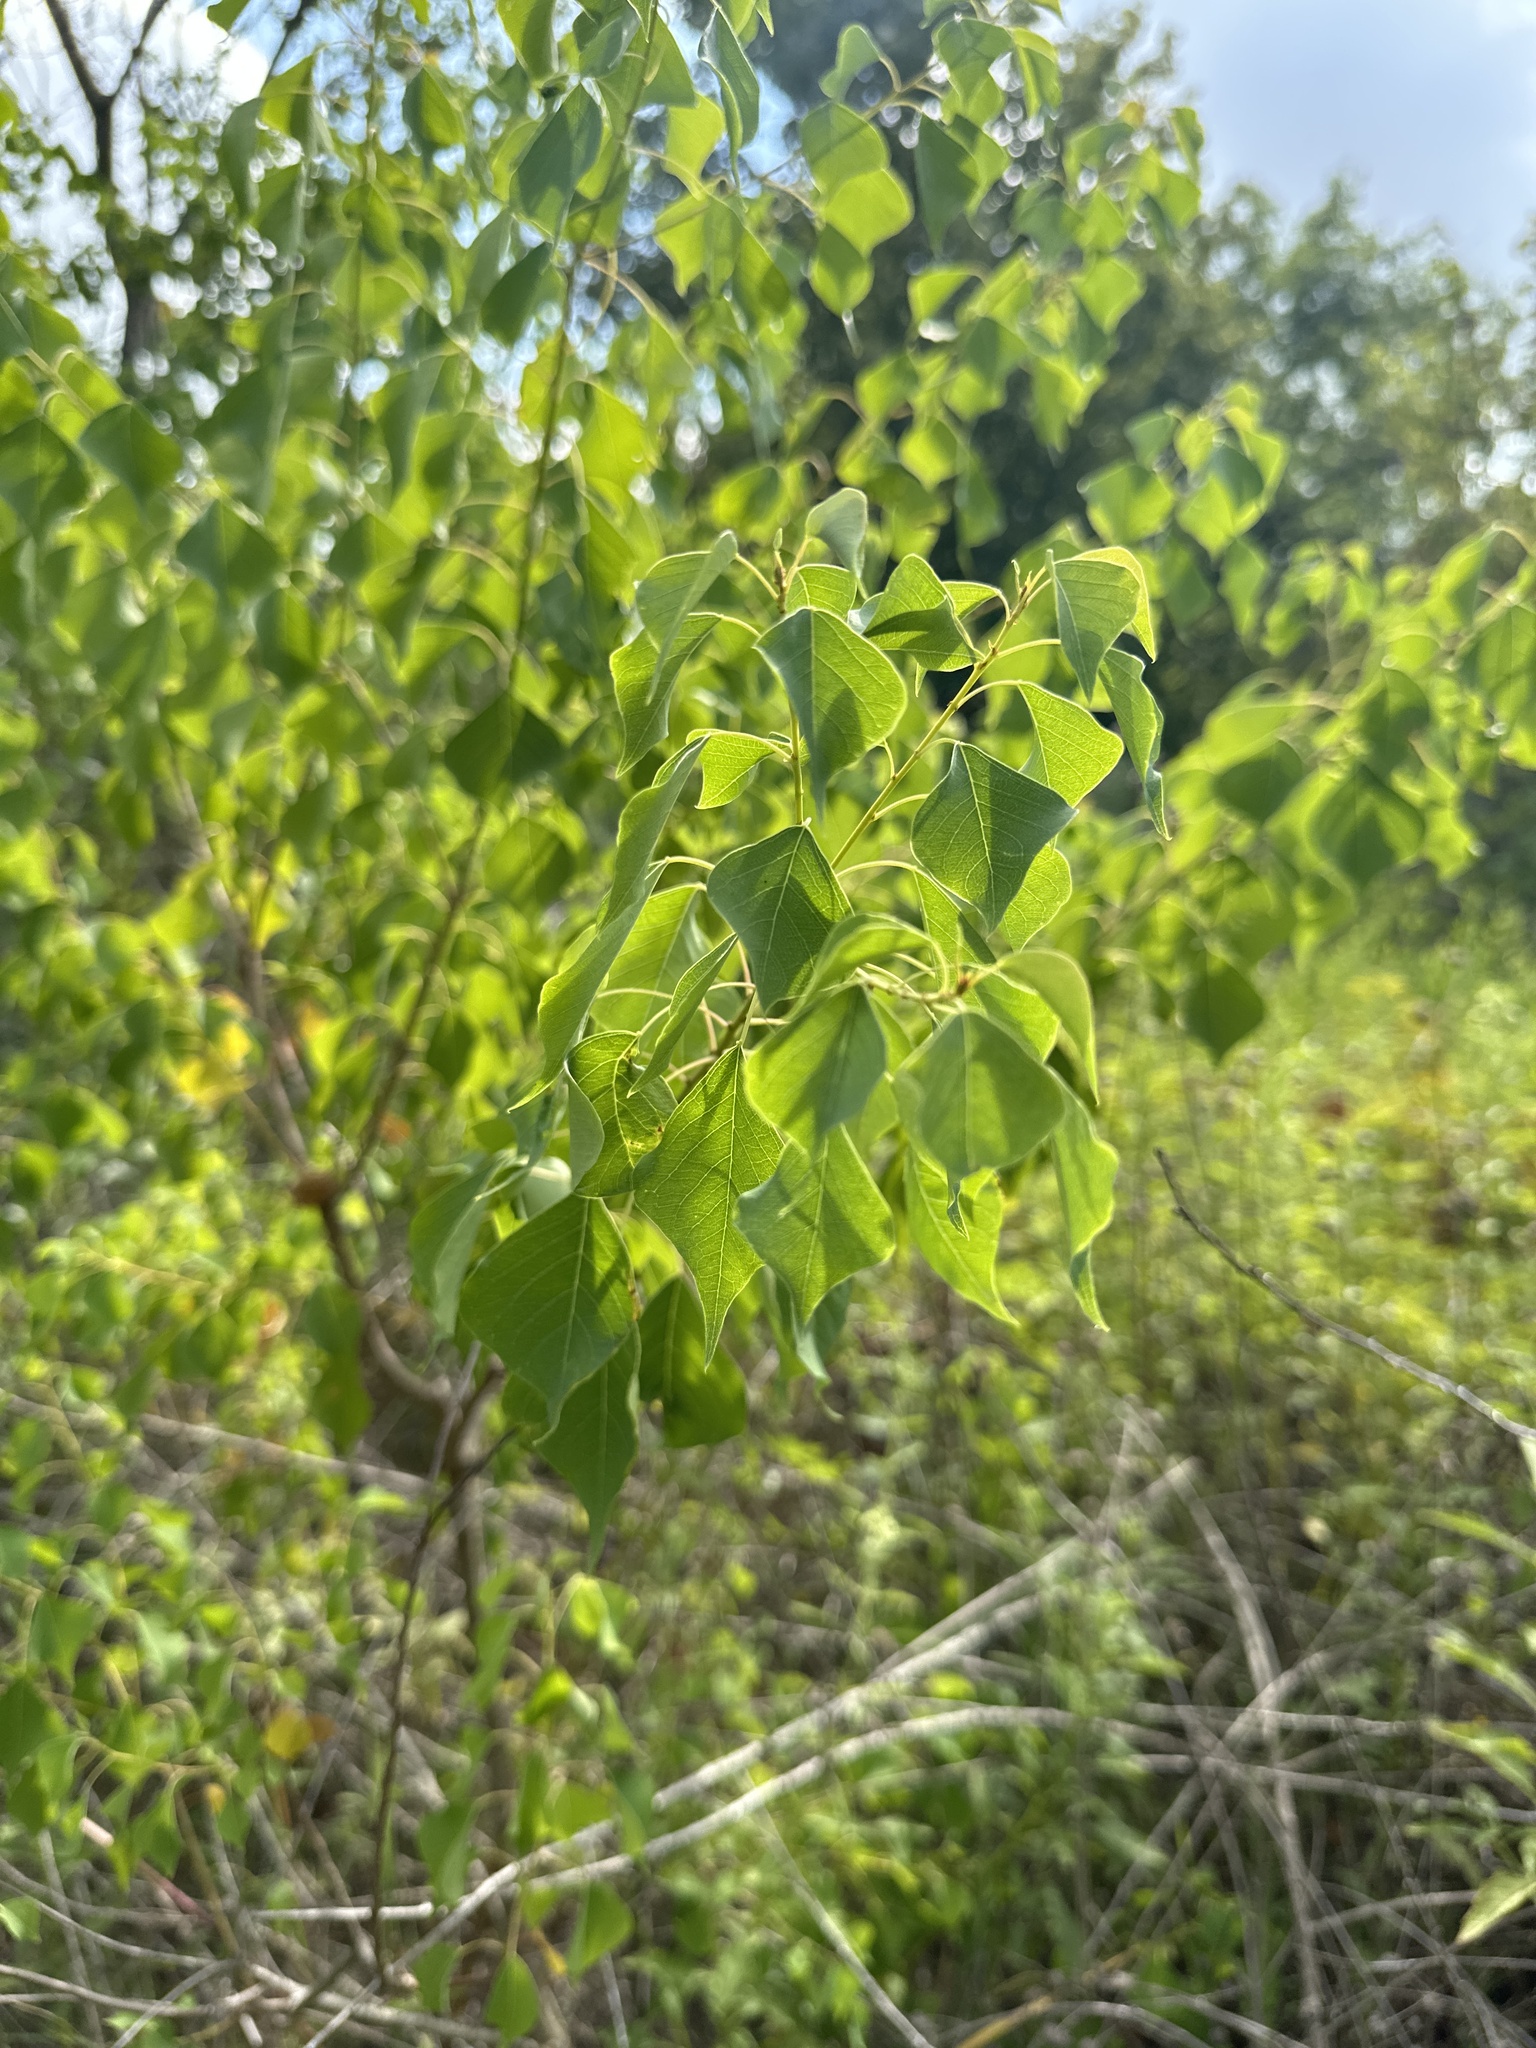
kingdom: Plantae
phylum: Tracheophyta
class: Magnoliopsida
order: Malpighiales
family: Euphorbiaceae
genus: Triadica
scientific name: Triadica sebifera
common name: Chinese tallow
